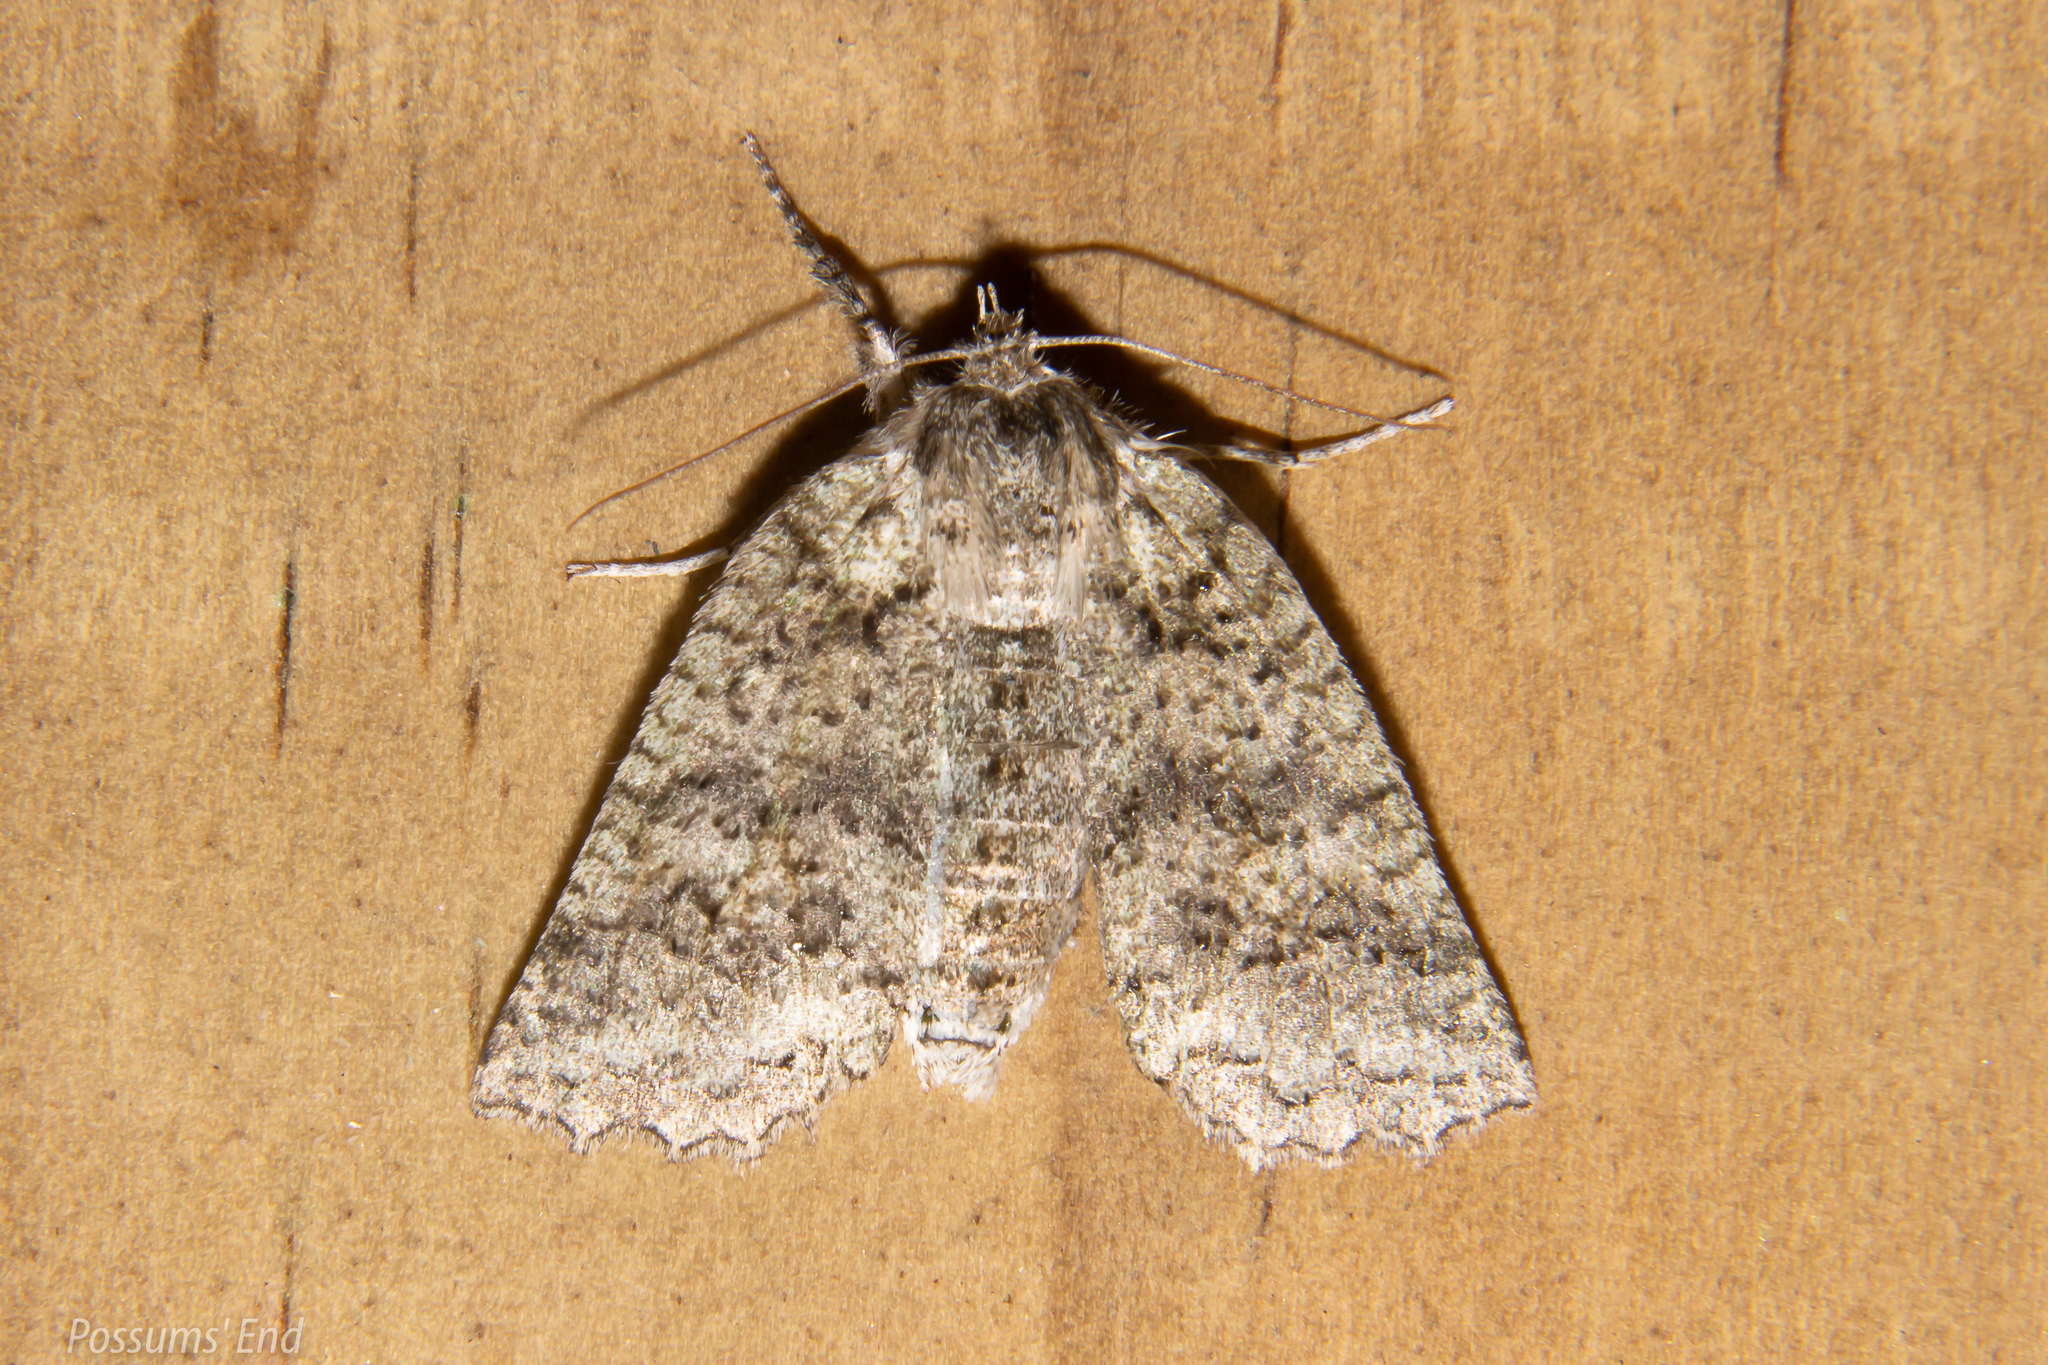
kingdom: Animalia
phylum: Arthropoda
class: Insecta
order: Lepidoptera
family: Geometridae
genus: Declana
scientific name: Declana floccosa
